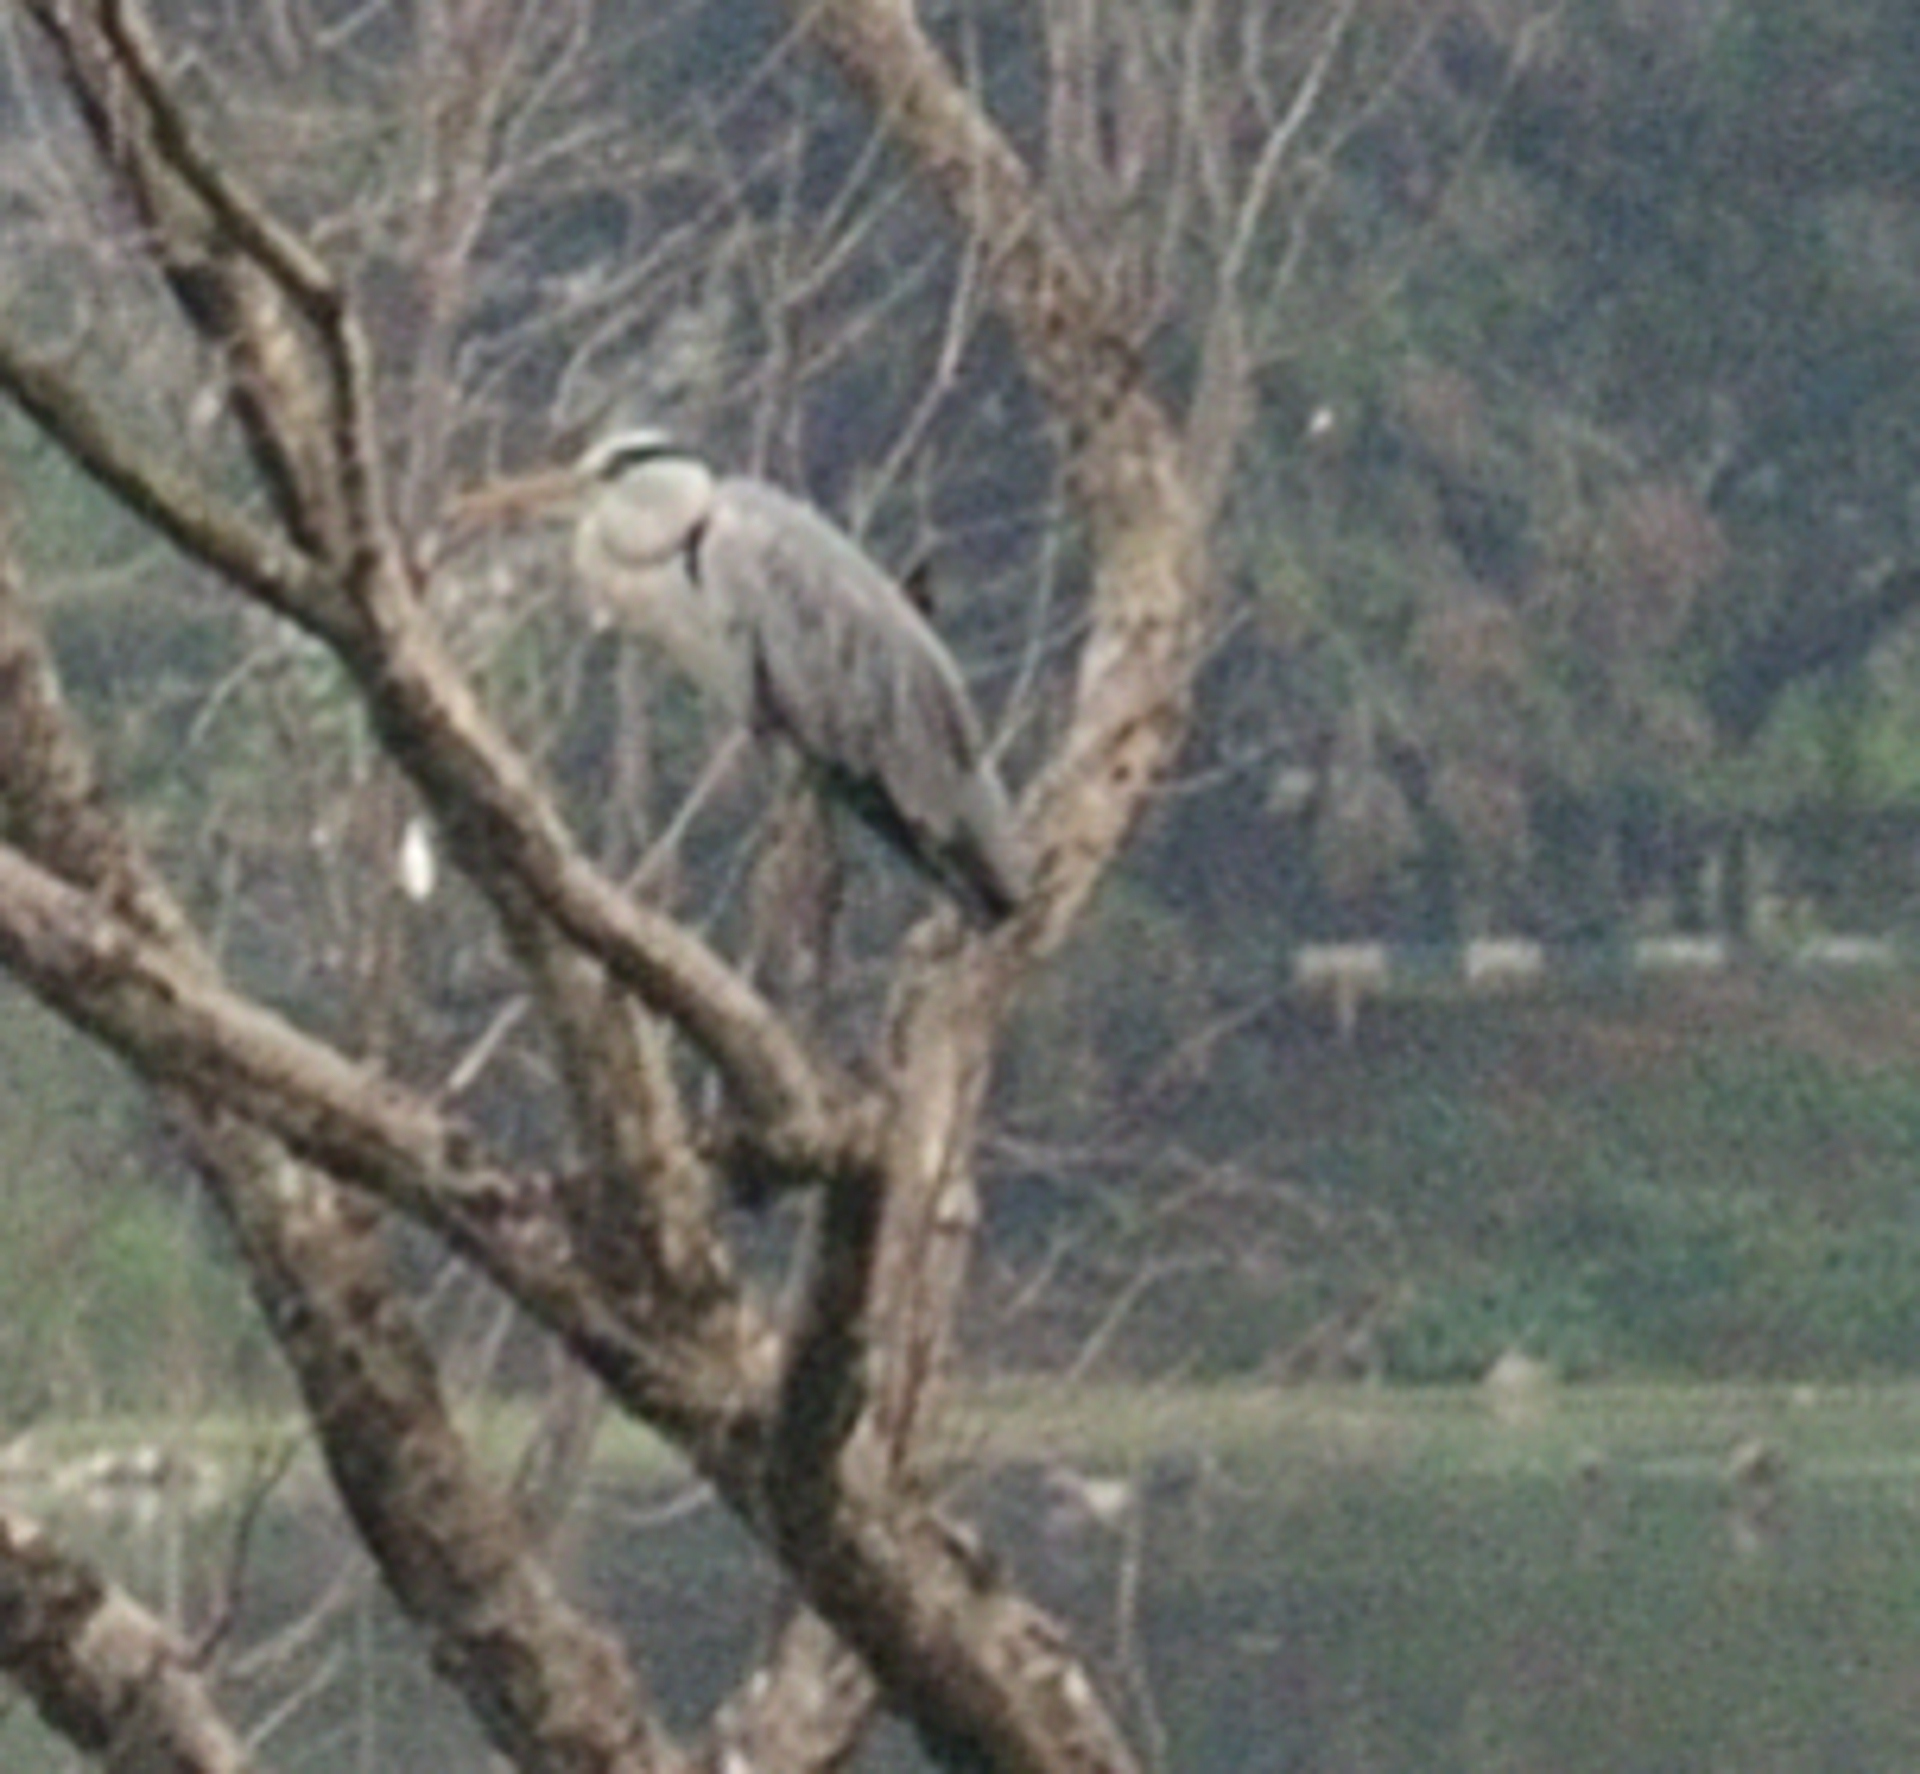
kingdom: Animalia
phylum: Chordata
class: Aves
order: Pelecaniformes
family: Ardeidae
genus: Ardea
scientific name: Ardea cinerea
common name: Grey heron
